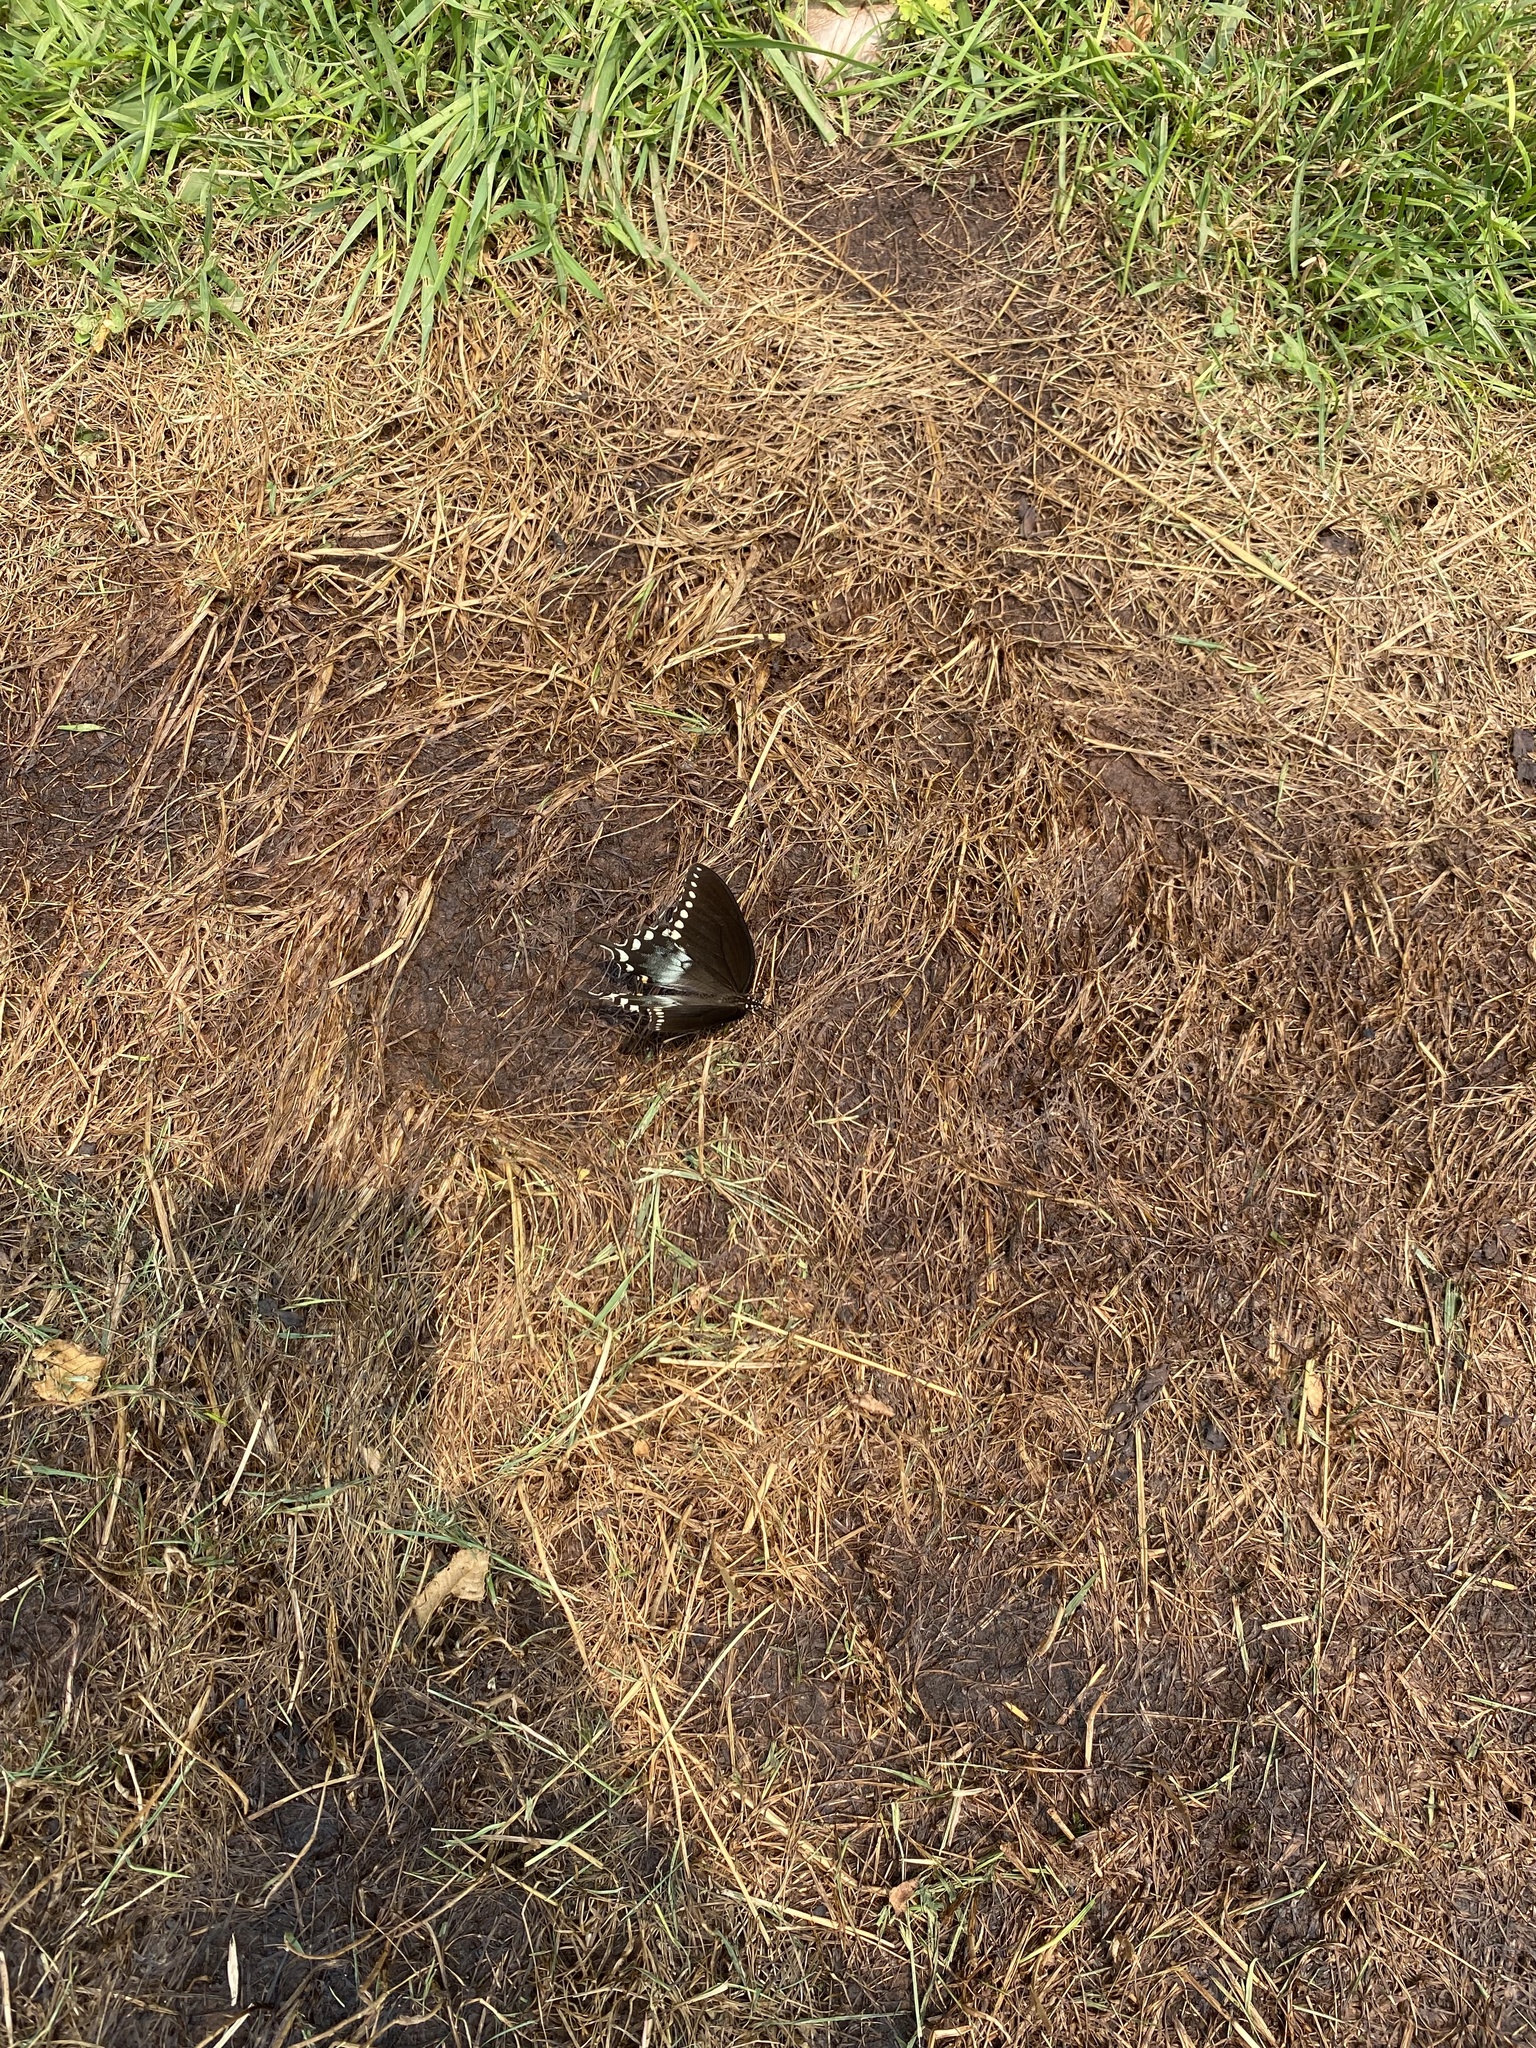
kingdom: Animalia
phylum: Arthropoda
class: Insecta
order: Lepidoptera
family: Papilionidae
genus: Papilio
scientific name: Papilio troilus
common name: Spicebush swallowtail
